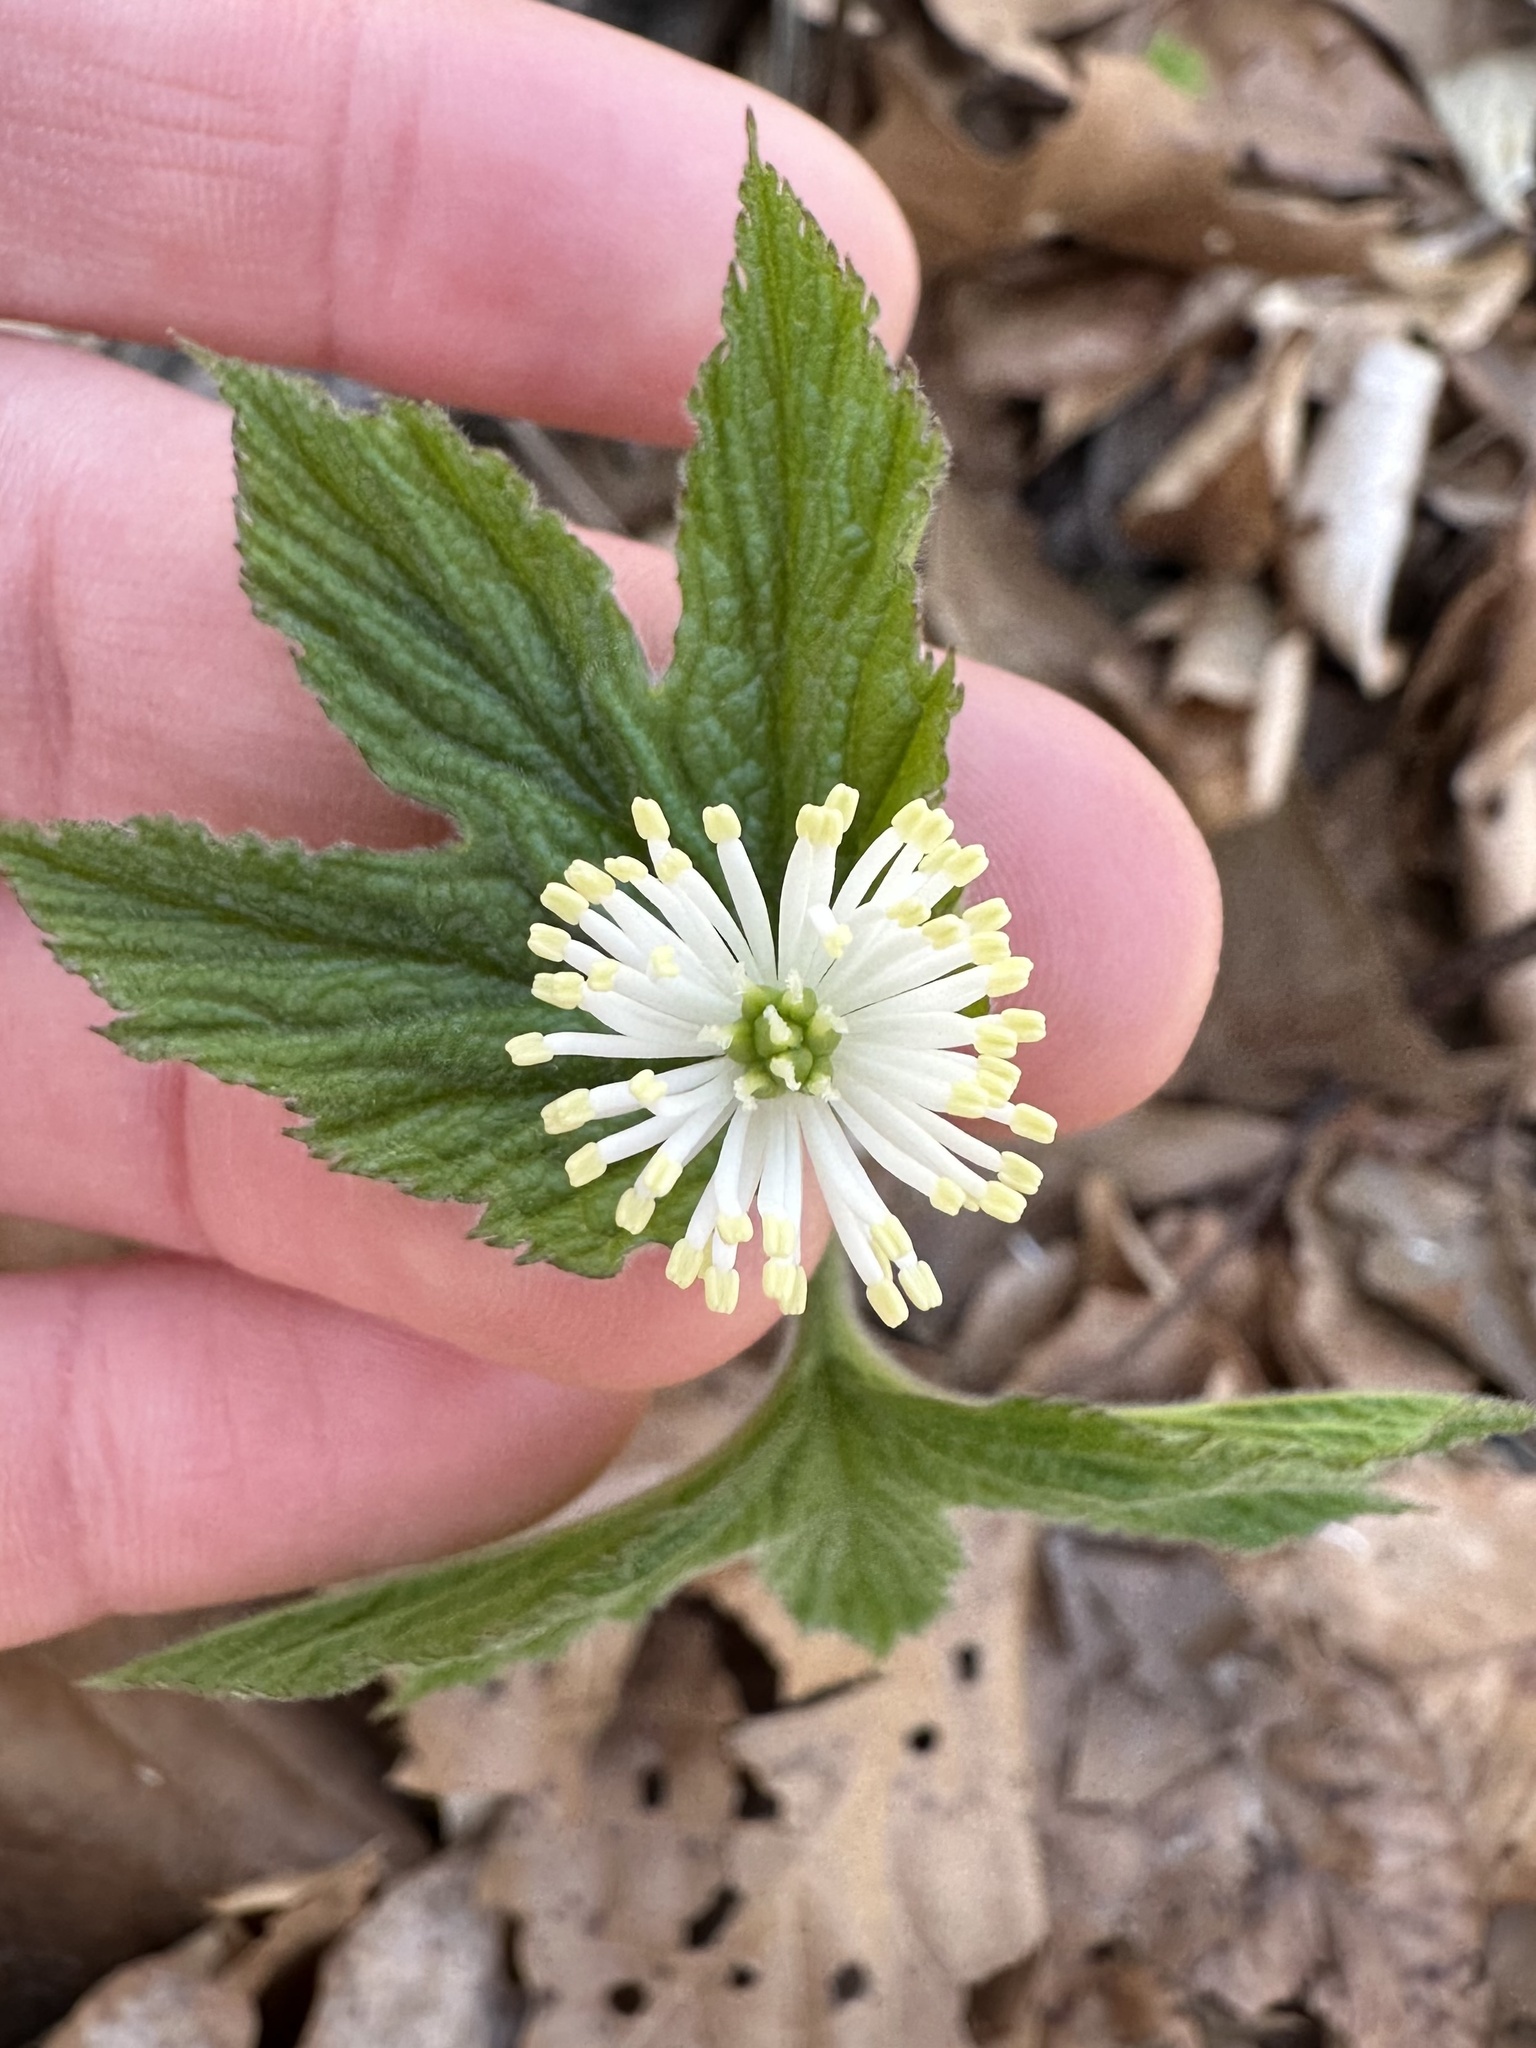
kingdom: Plantae
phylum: Tracheophyta
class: Magnoliopsida
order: Ranunculales
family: Ranunculaceae
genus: Hydrastis
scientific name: Hydrastis canadensis
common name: Goldenseal
